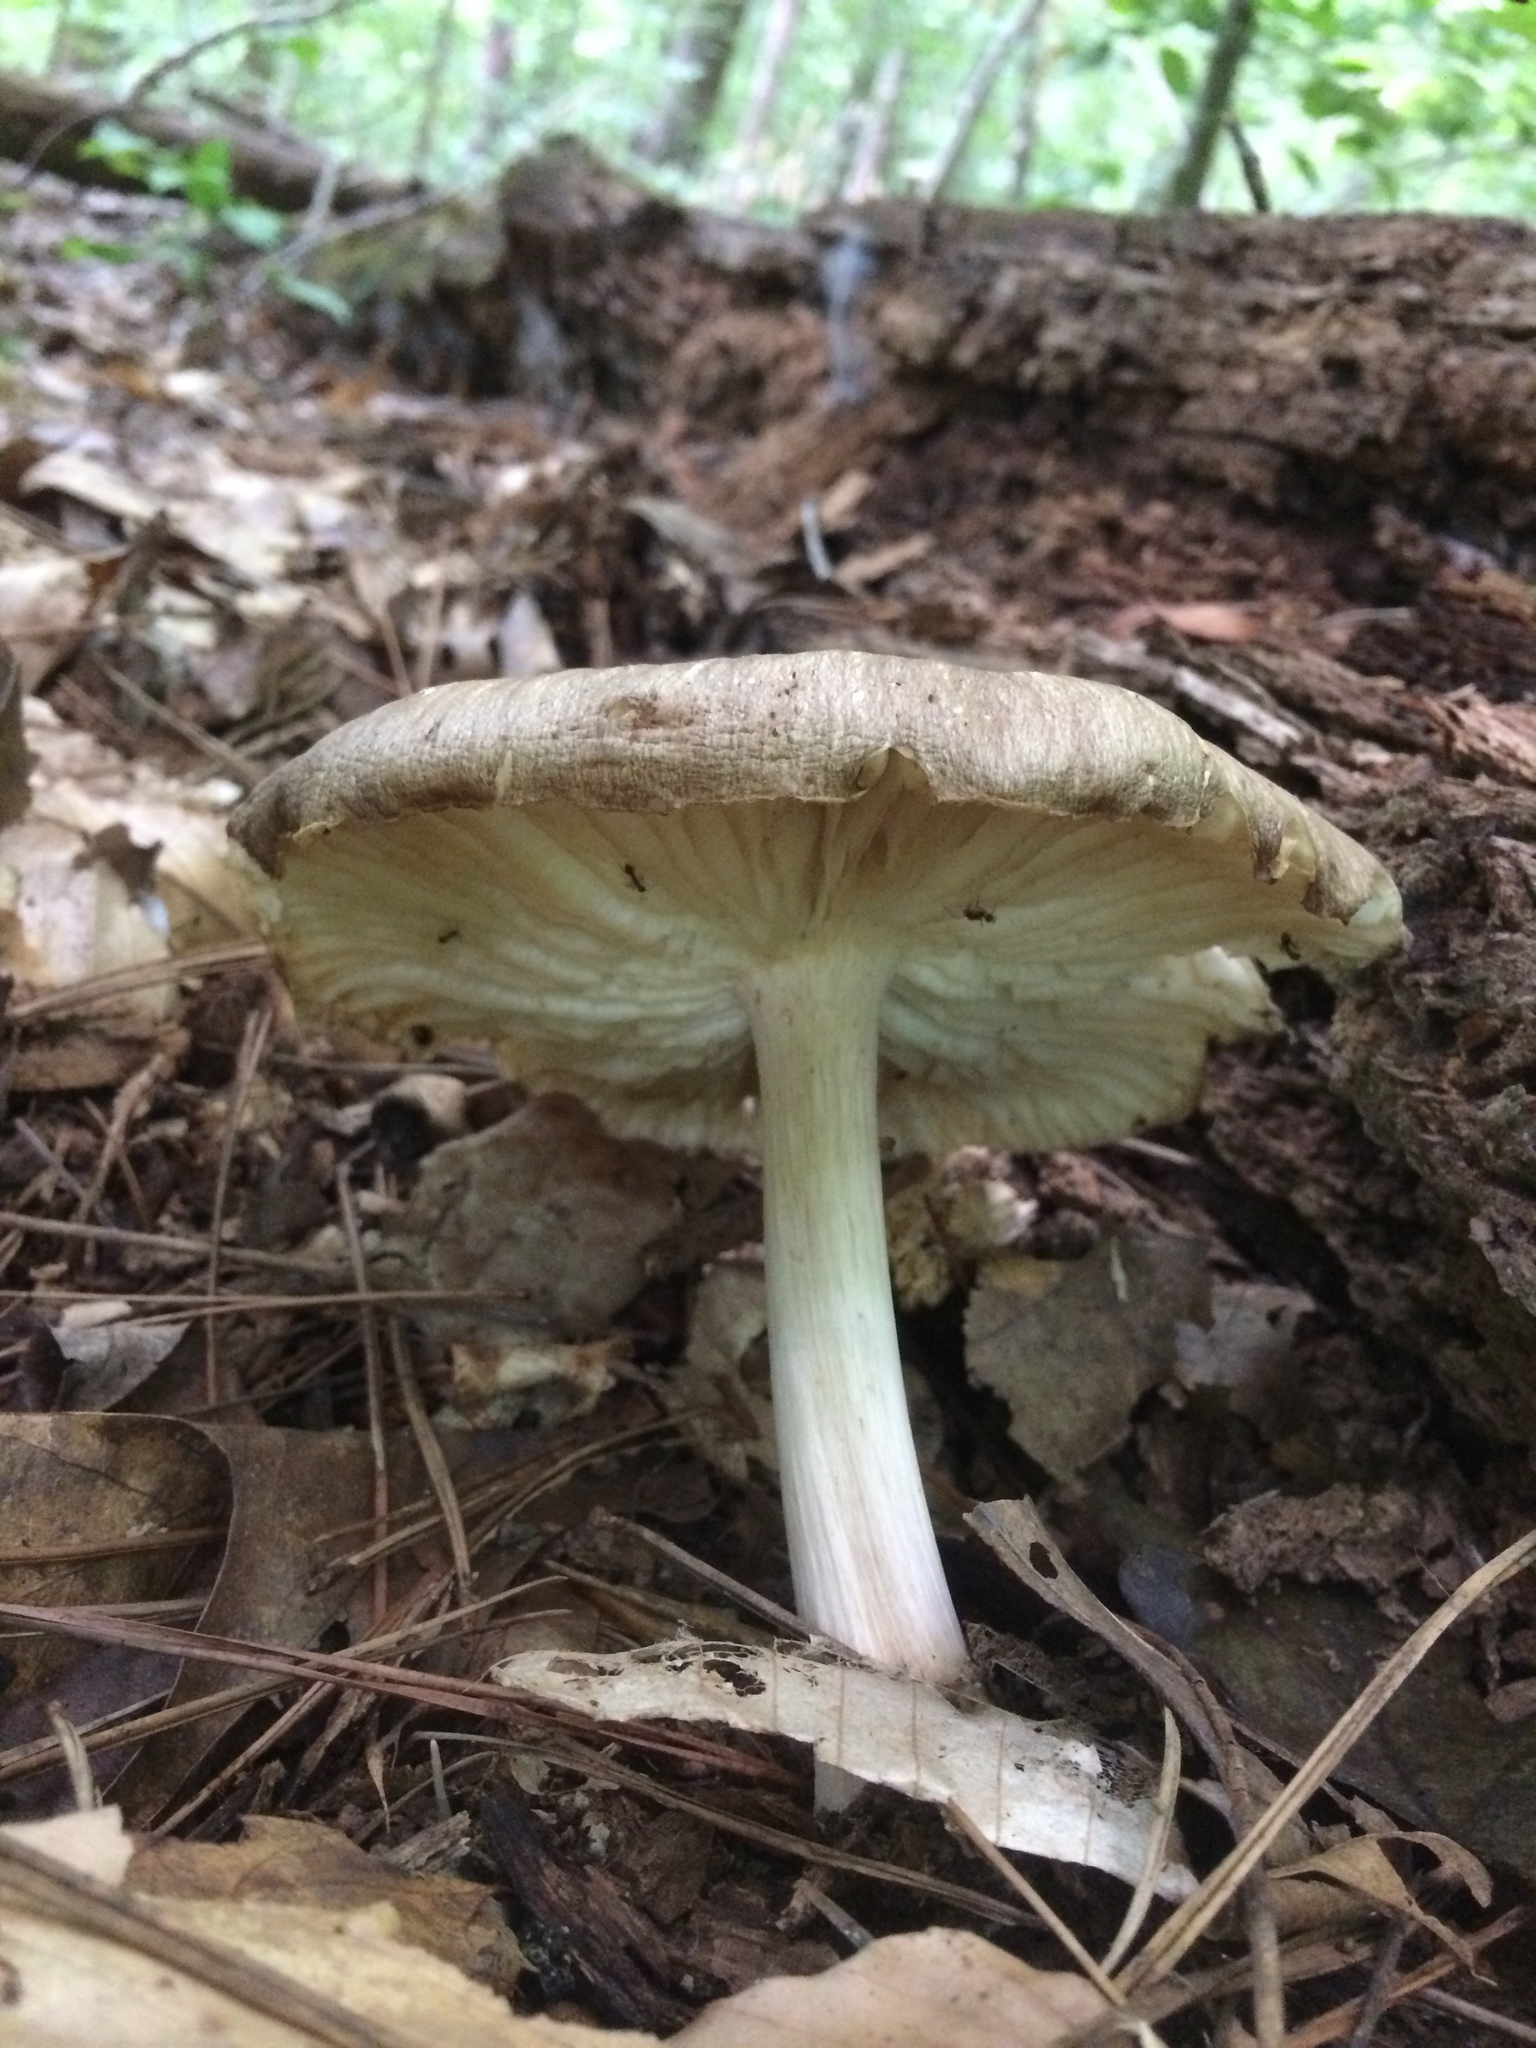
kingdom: Fungi
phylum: Basidiomycota
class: Agaricomycetes
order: Agaricales
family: Tricholomataceae
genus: Megacollybia
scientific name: Megacollybia rodmanii
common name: Eastern american platterful mushroom
